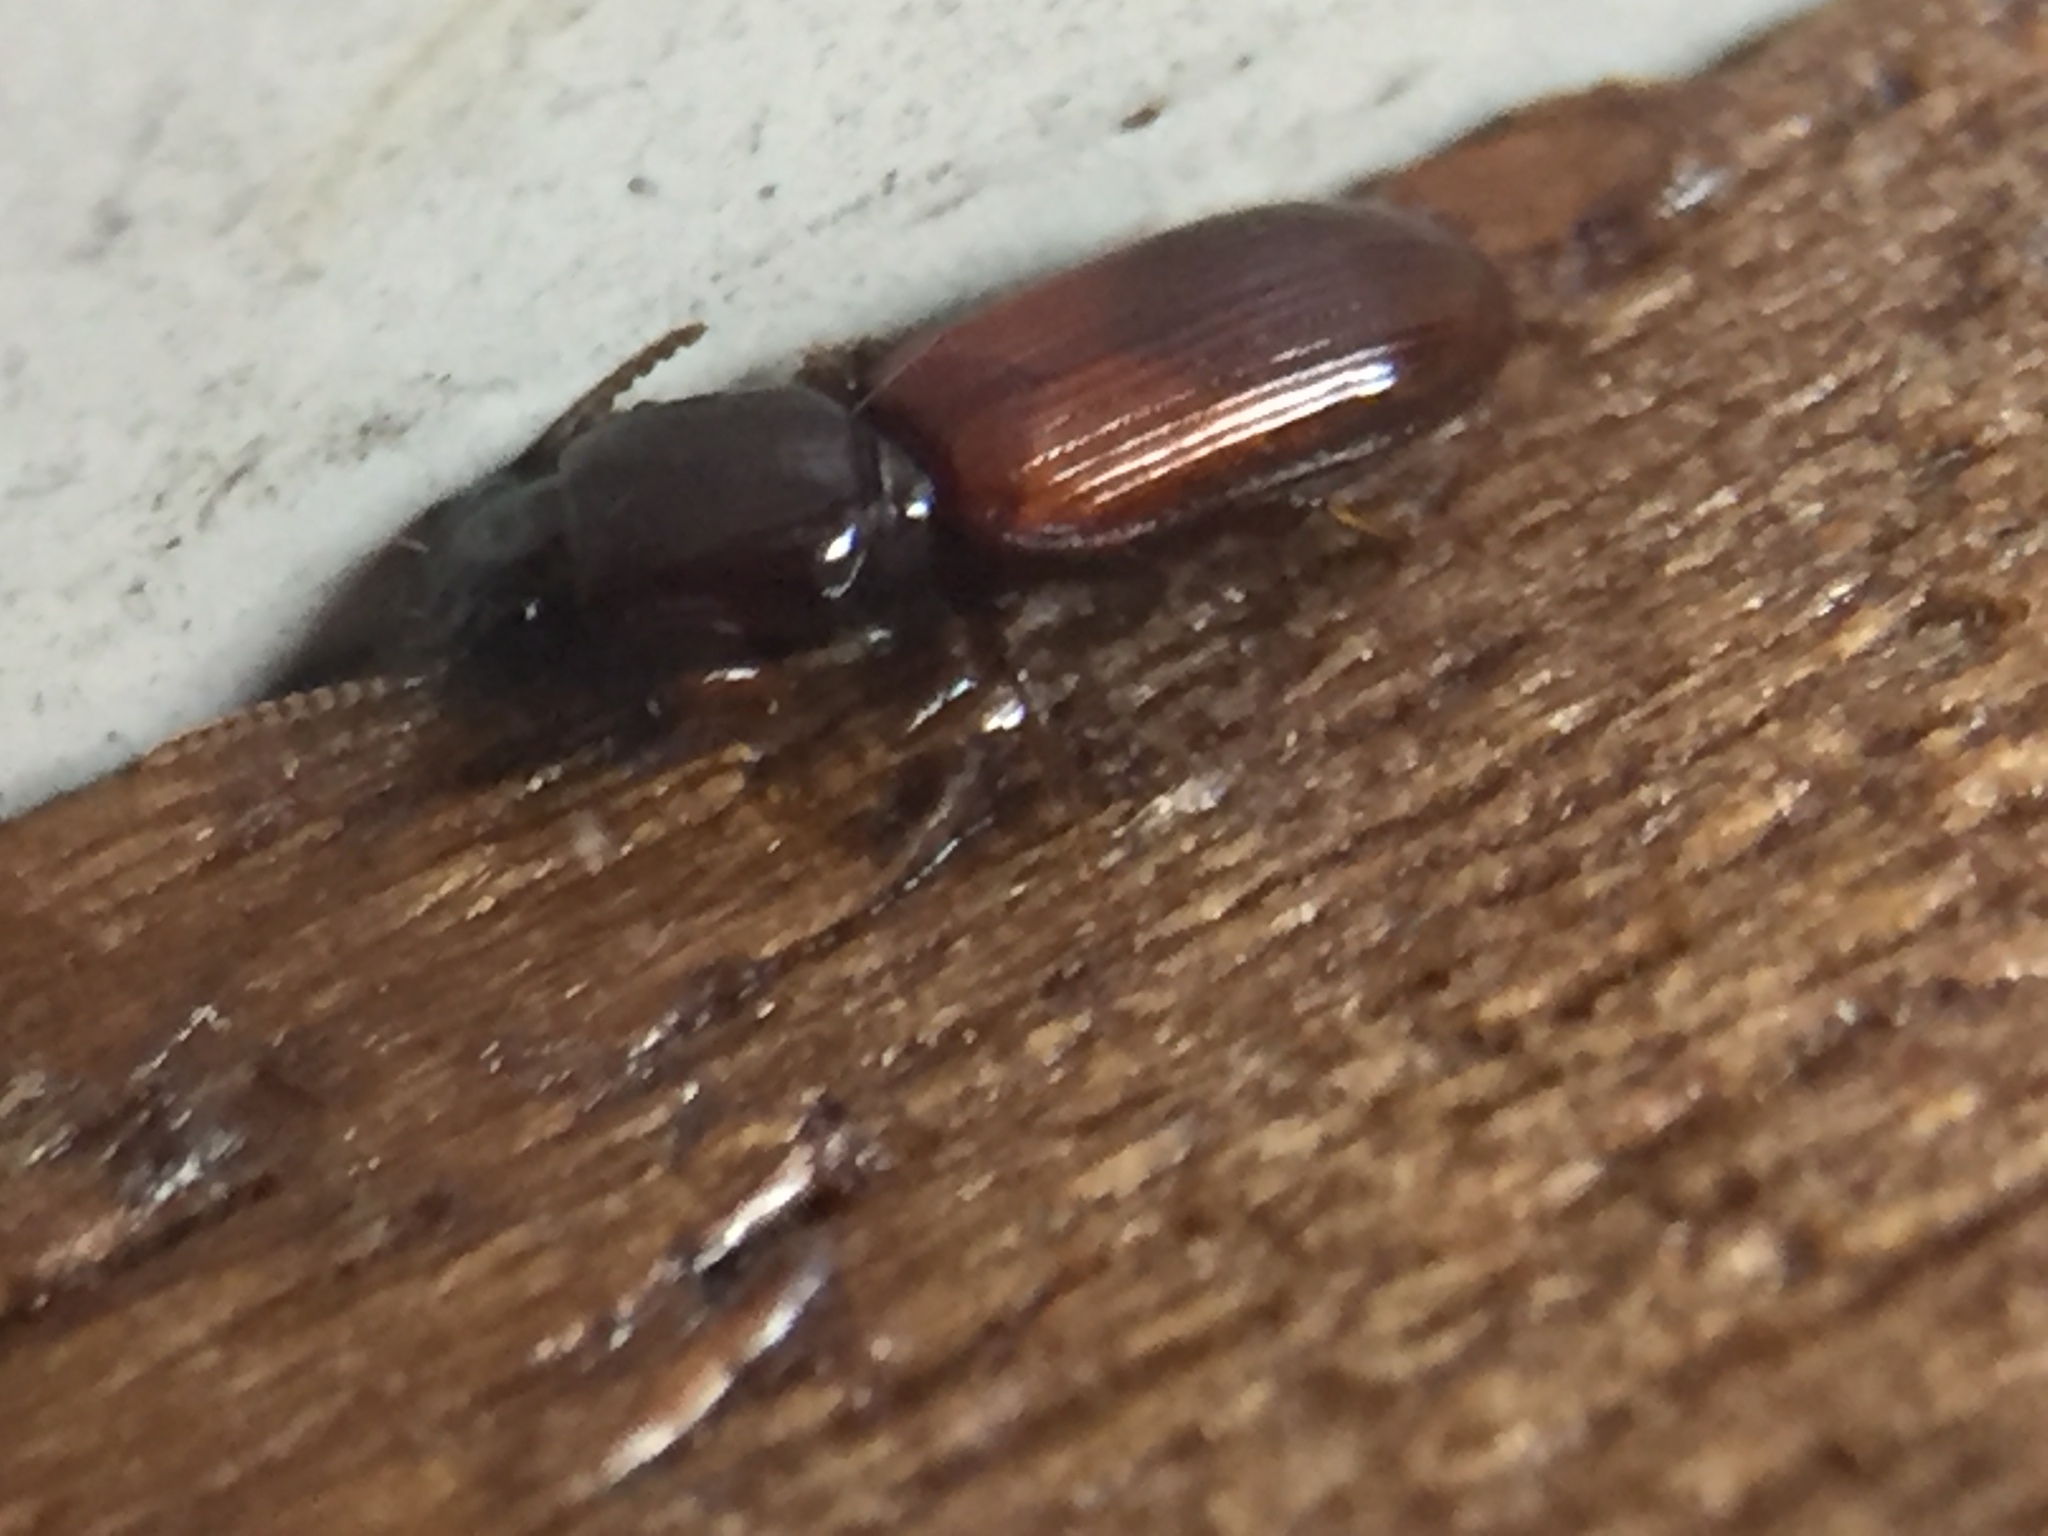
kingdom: Animalia
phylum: Arthropoda
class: Insecta
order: Coleoptera
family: Carabidae
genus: Clivina
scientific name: Clivina basalis
